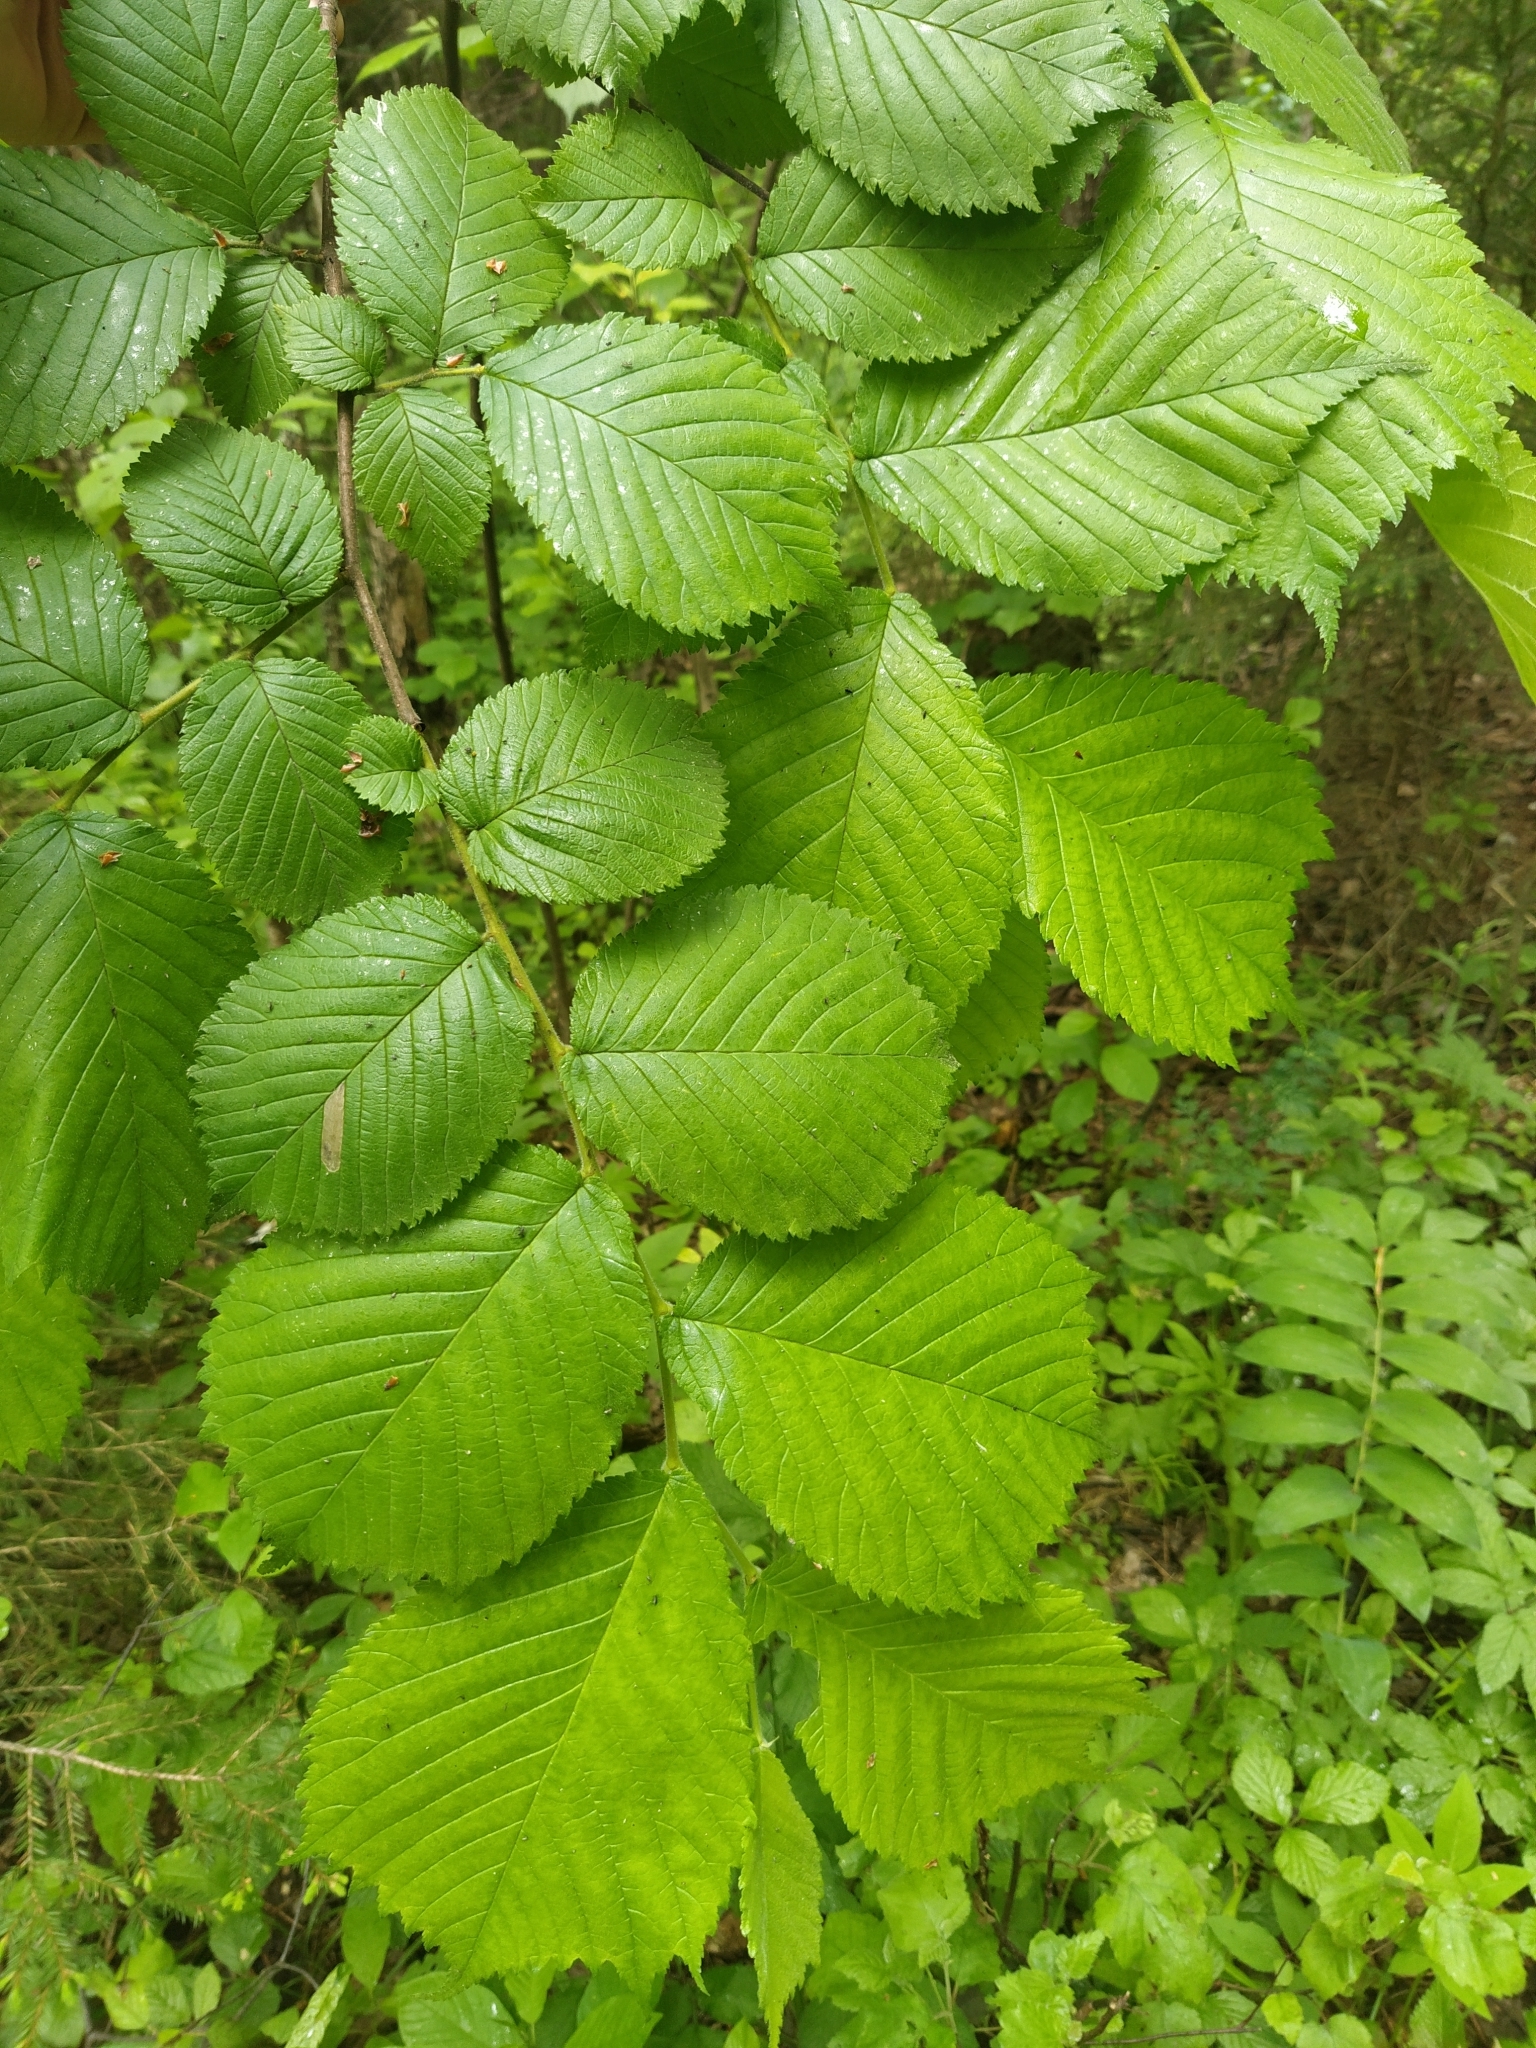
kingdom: Plantae
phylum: Tracheophyta
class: Magnoliopsida
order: Rosales
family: Ulmaceae
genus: Ulmus
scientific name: Ulmus glabra
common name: Wych elm
